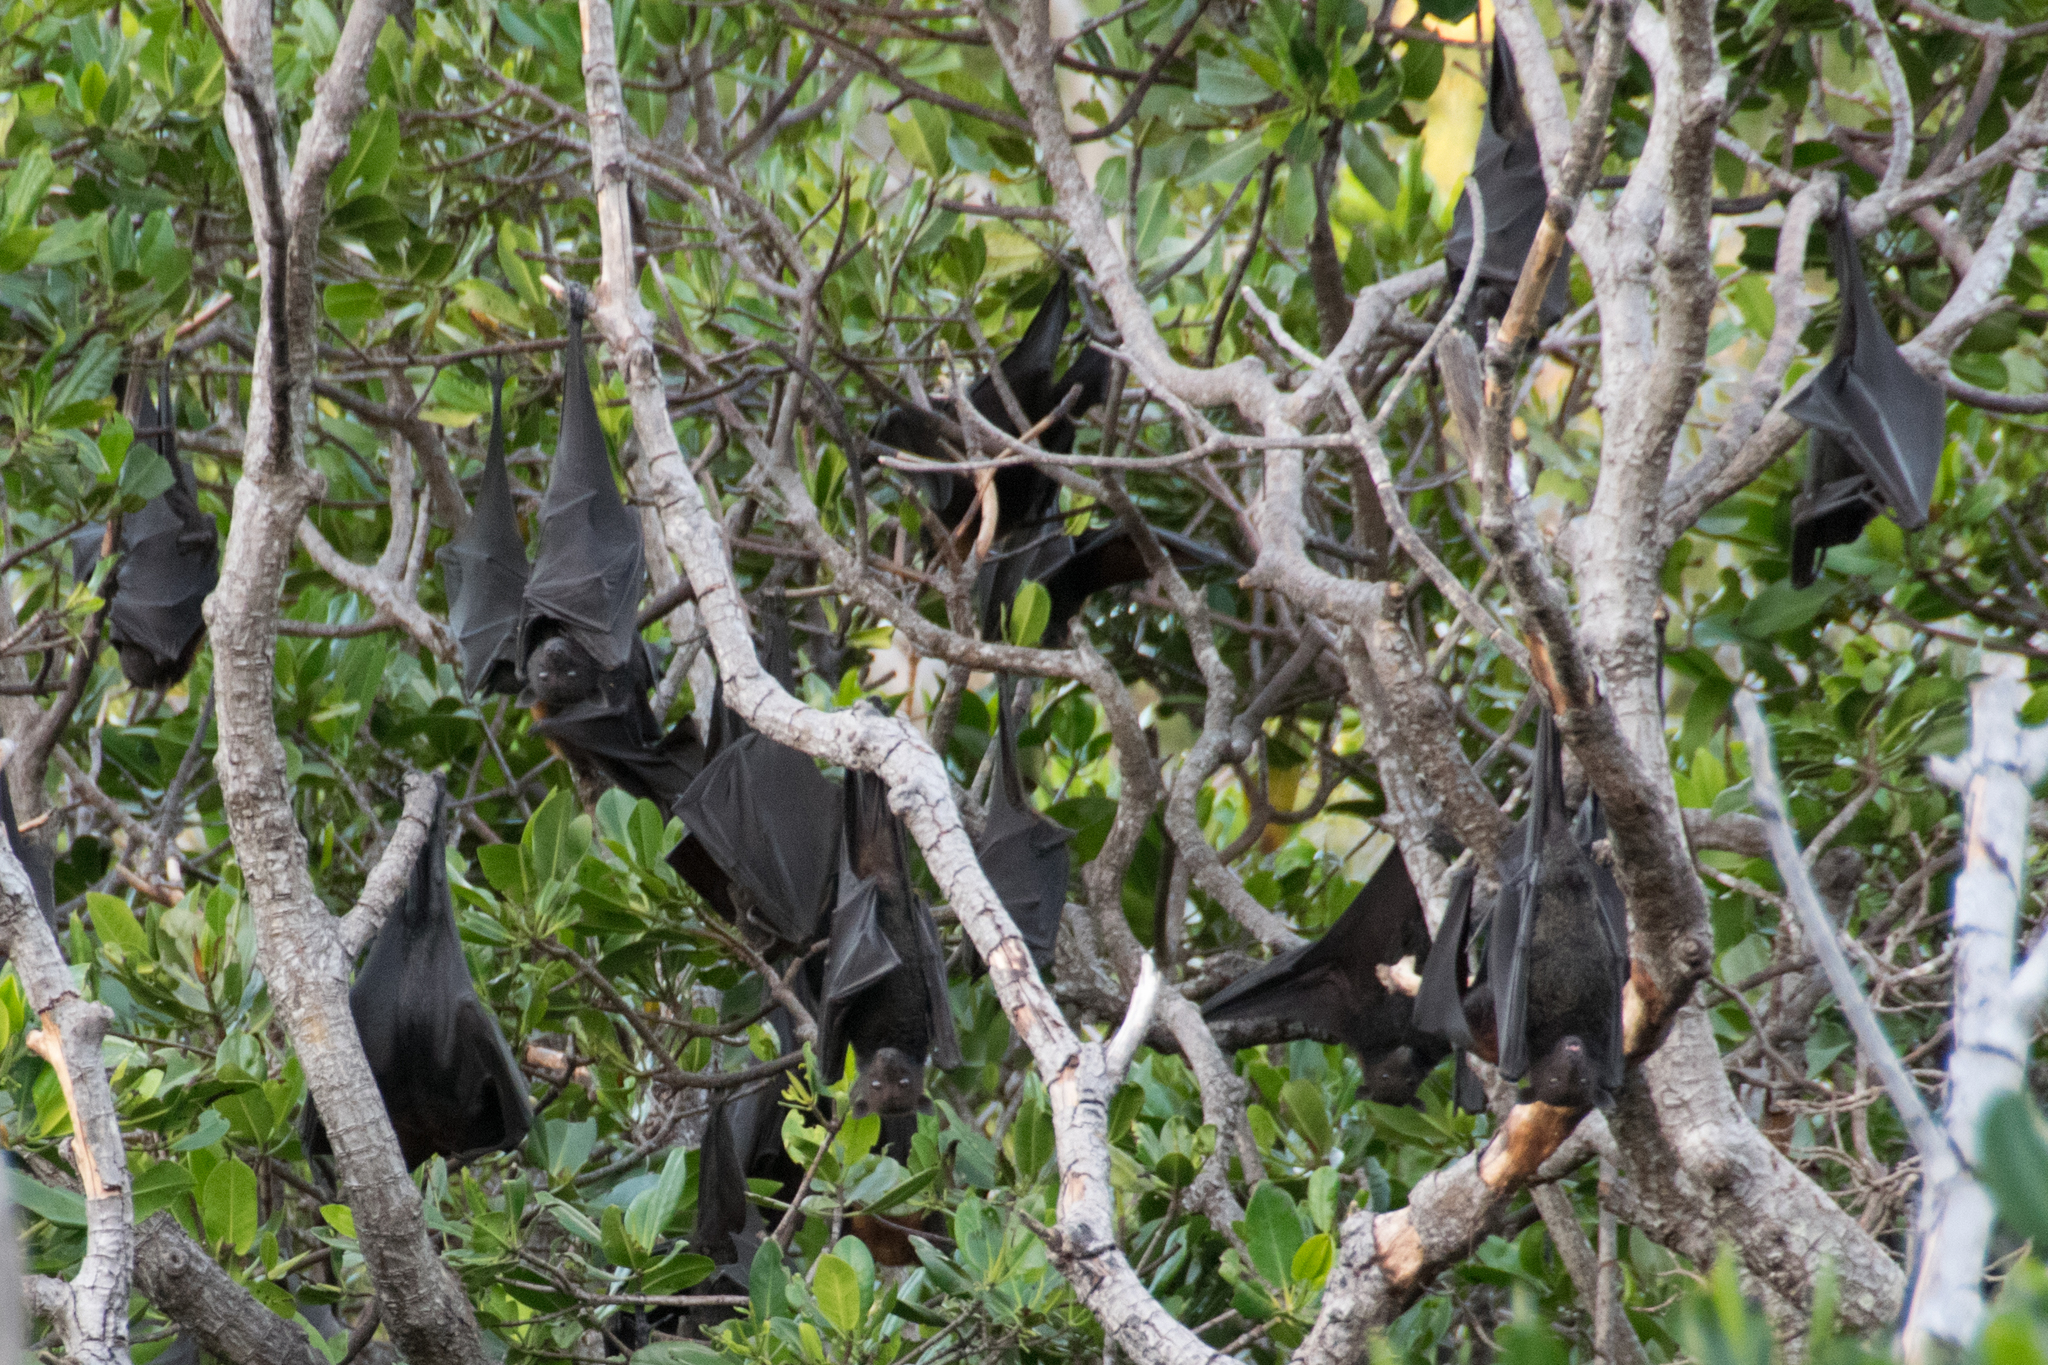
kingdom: Animalia
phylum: Chordata
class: Mammalia
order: Chiroptera
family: Pteropodidae
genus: Pteropus
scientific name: Pteropus alecto
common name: Black flying fox
